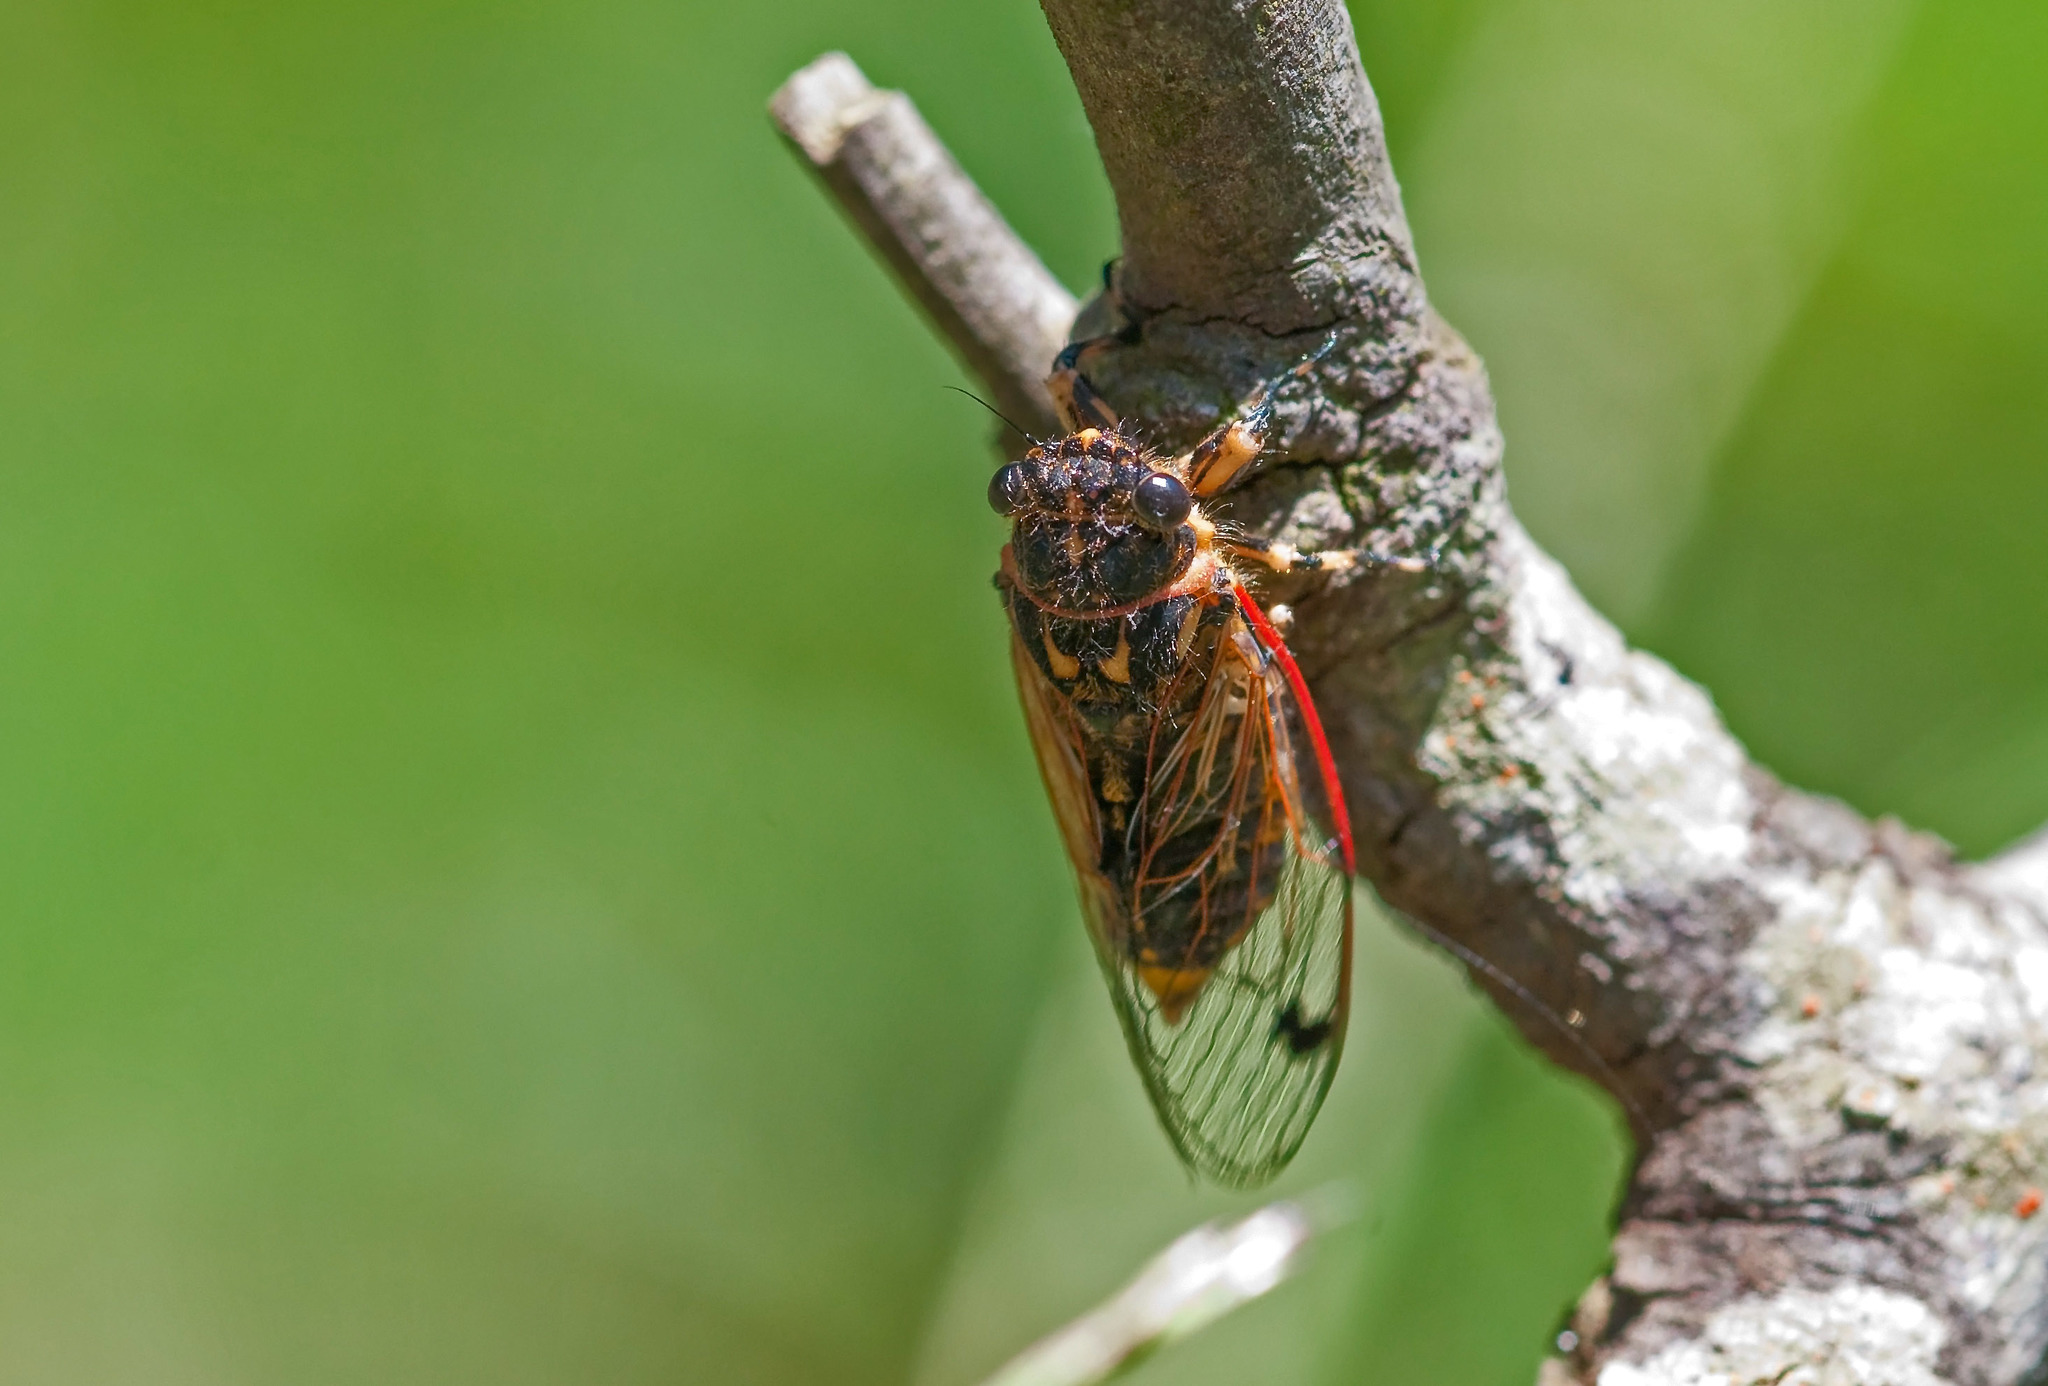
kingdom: Animalia
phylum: Arthropoda
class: Insecta
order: Hemiptera
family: Cicadidae
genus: Diemeniana
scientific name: Diemeniana euronotiana
